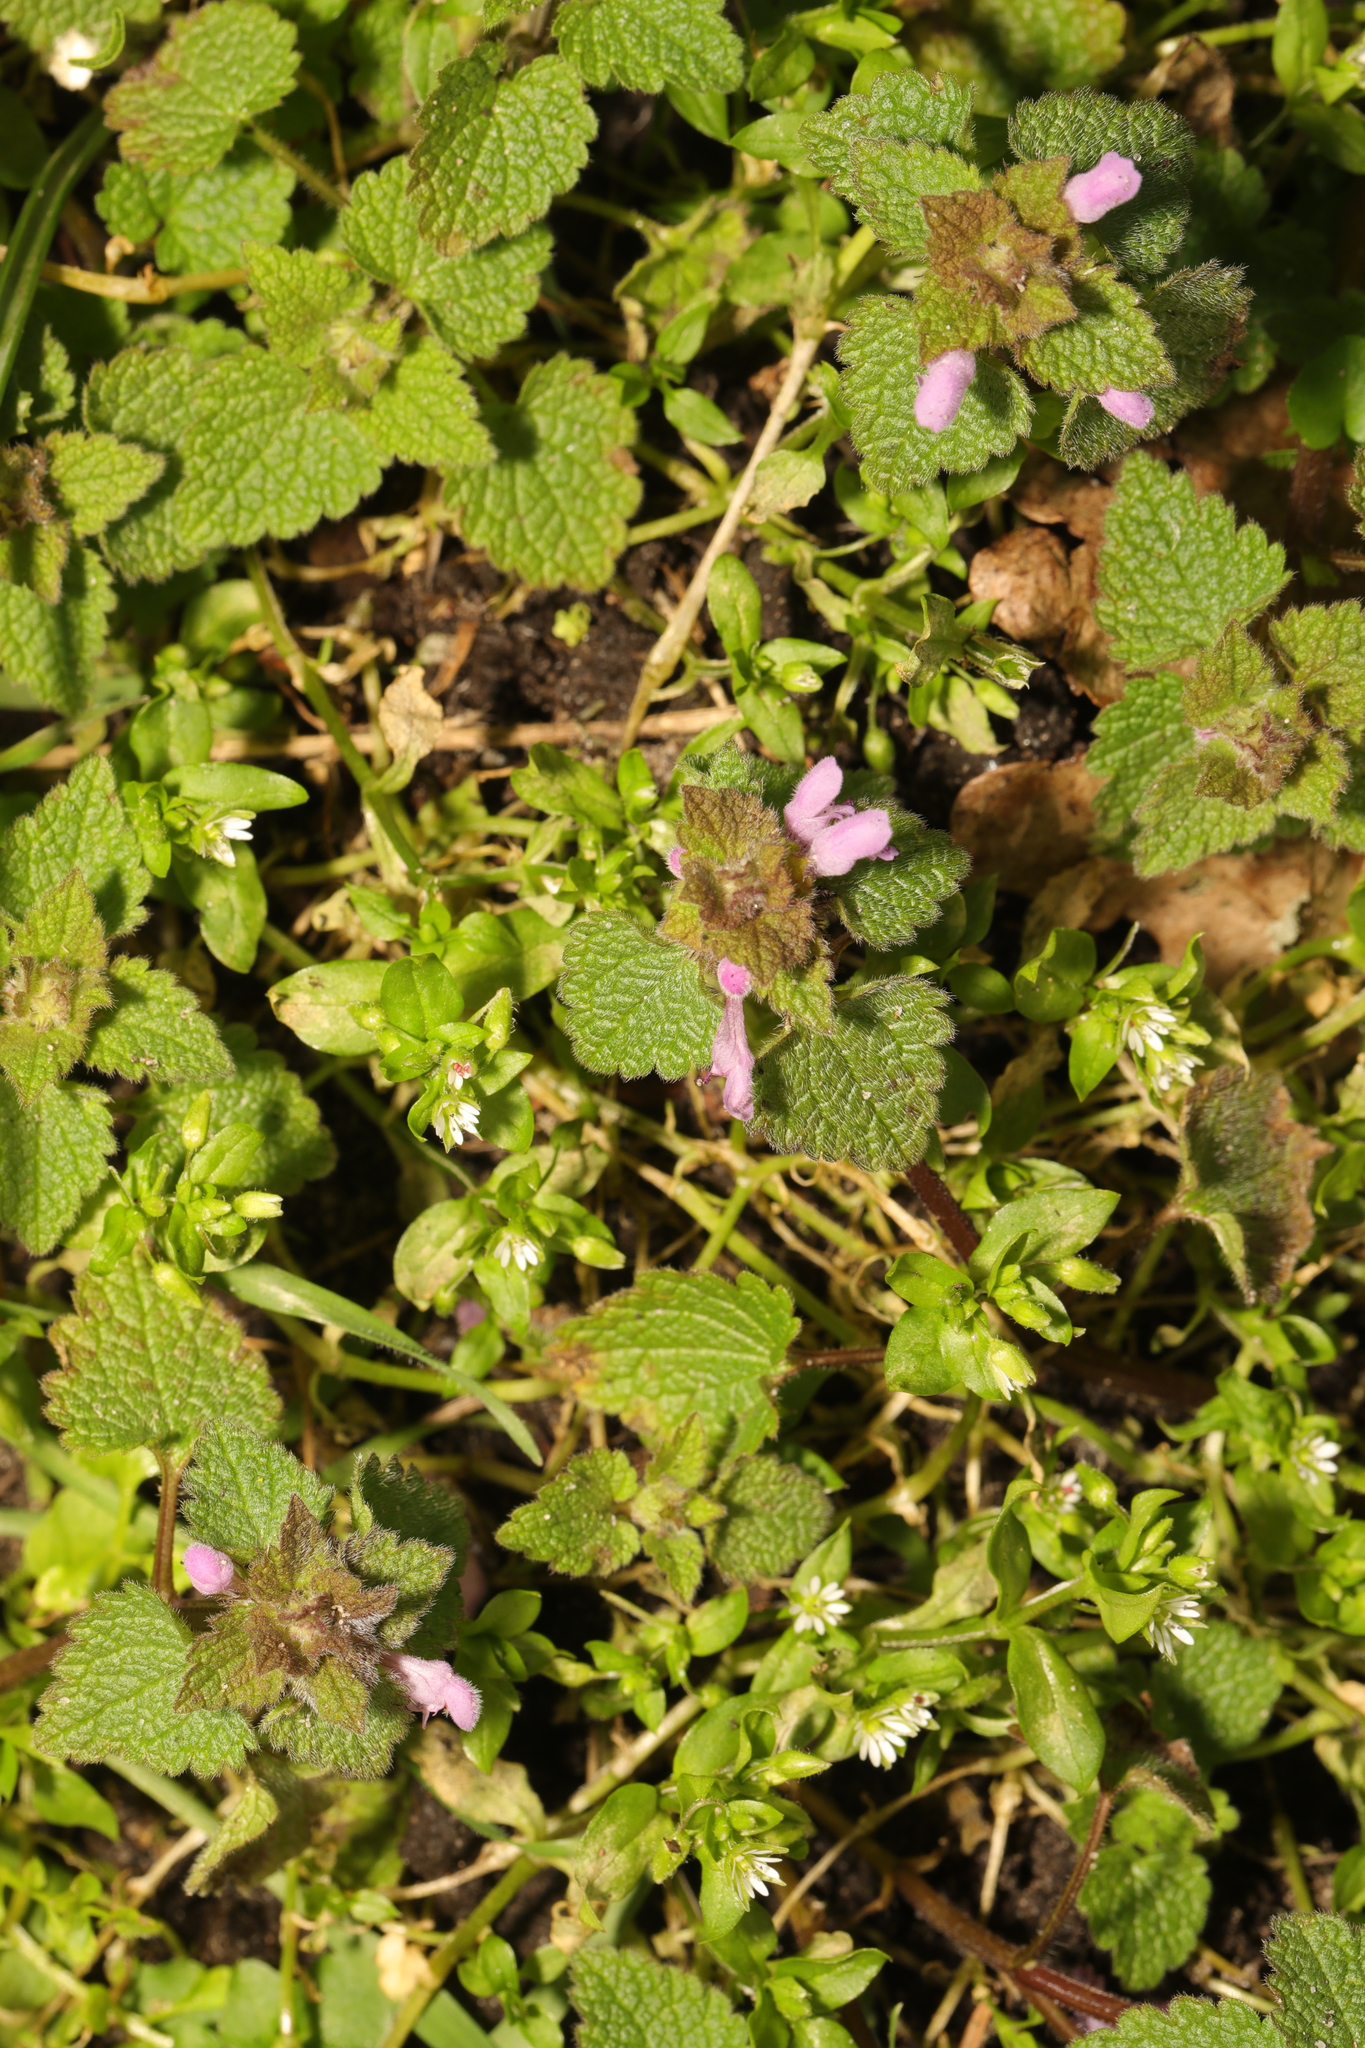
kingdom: Plantae
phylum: Tracheophyta
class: Magnoliopsida
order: Lamiales
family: Lamiaceae
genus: Lamium
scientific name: Lamium purpureum
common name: Red dead-nettle
